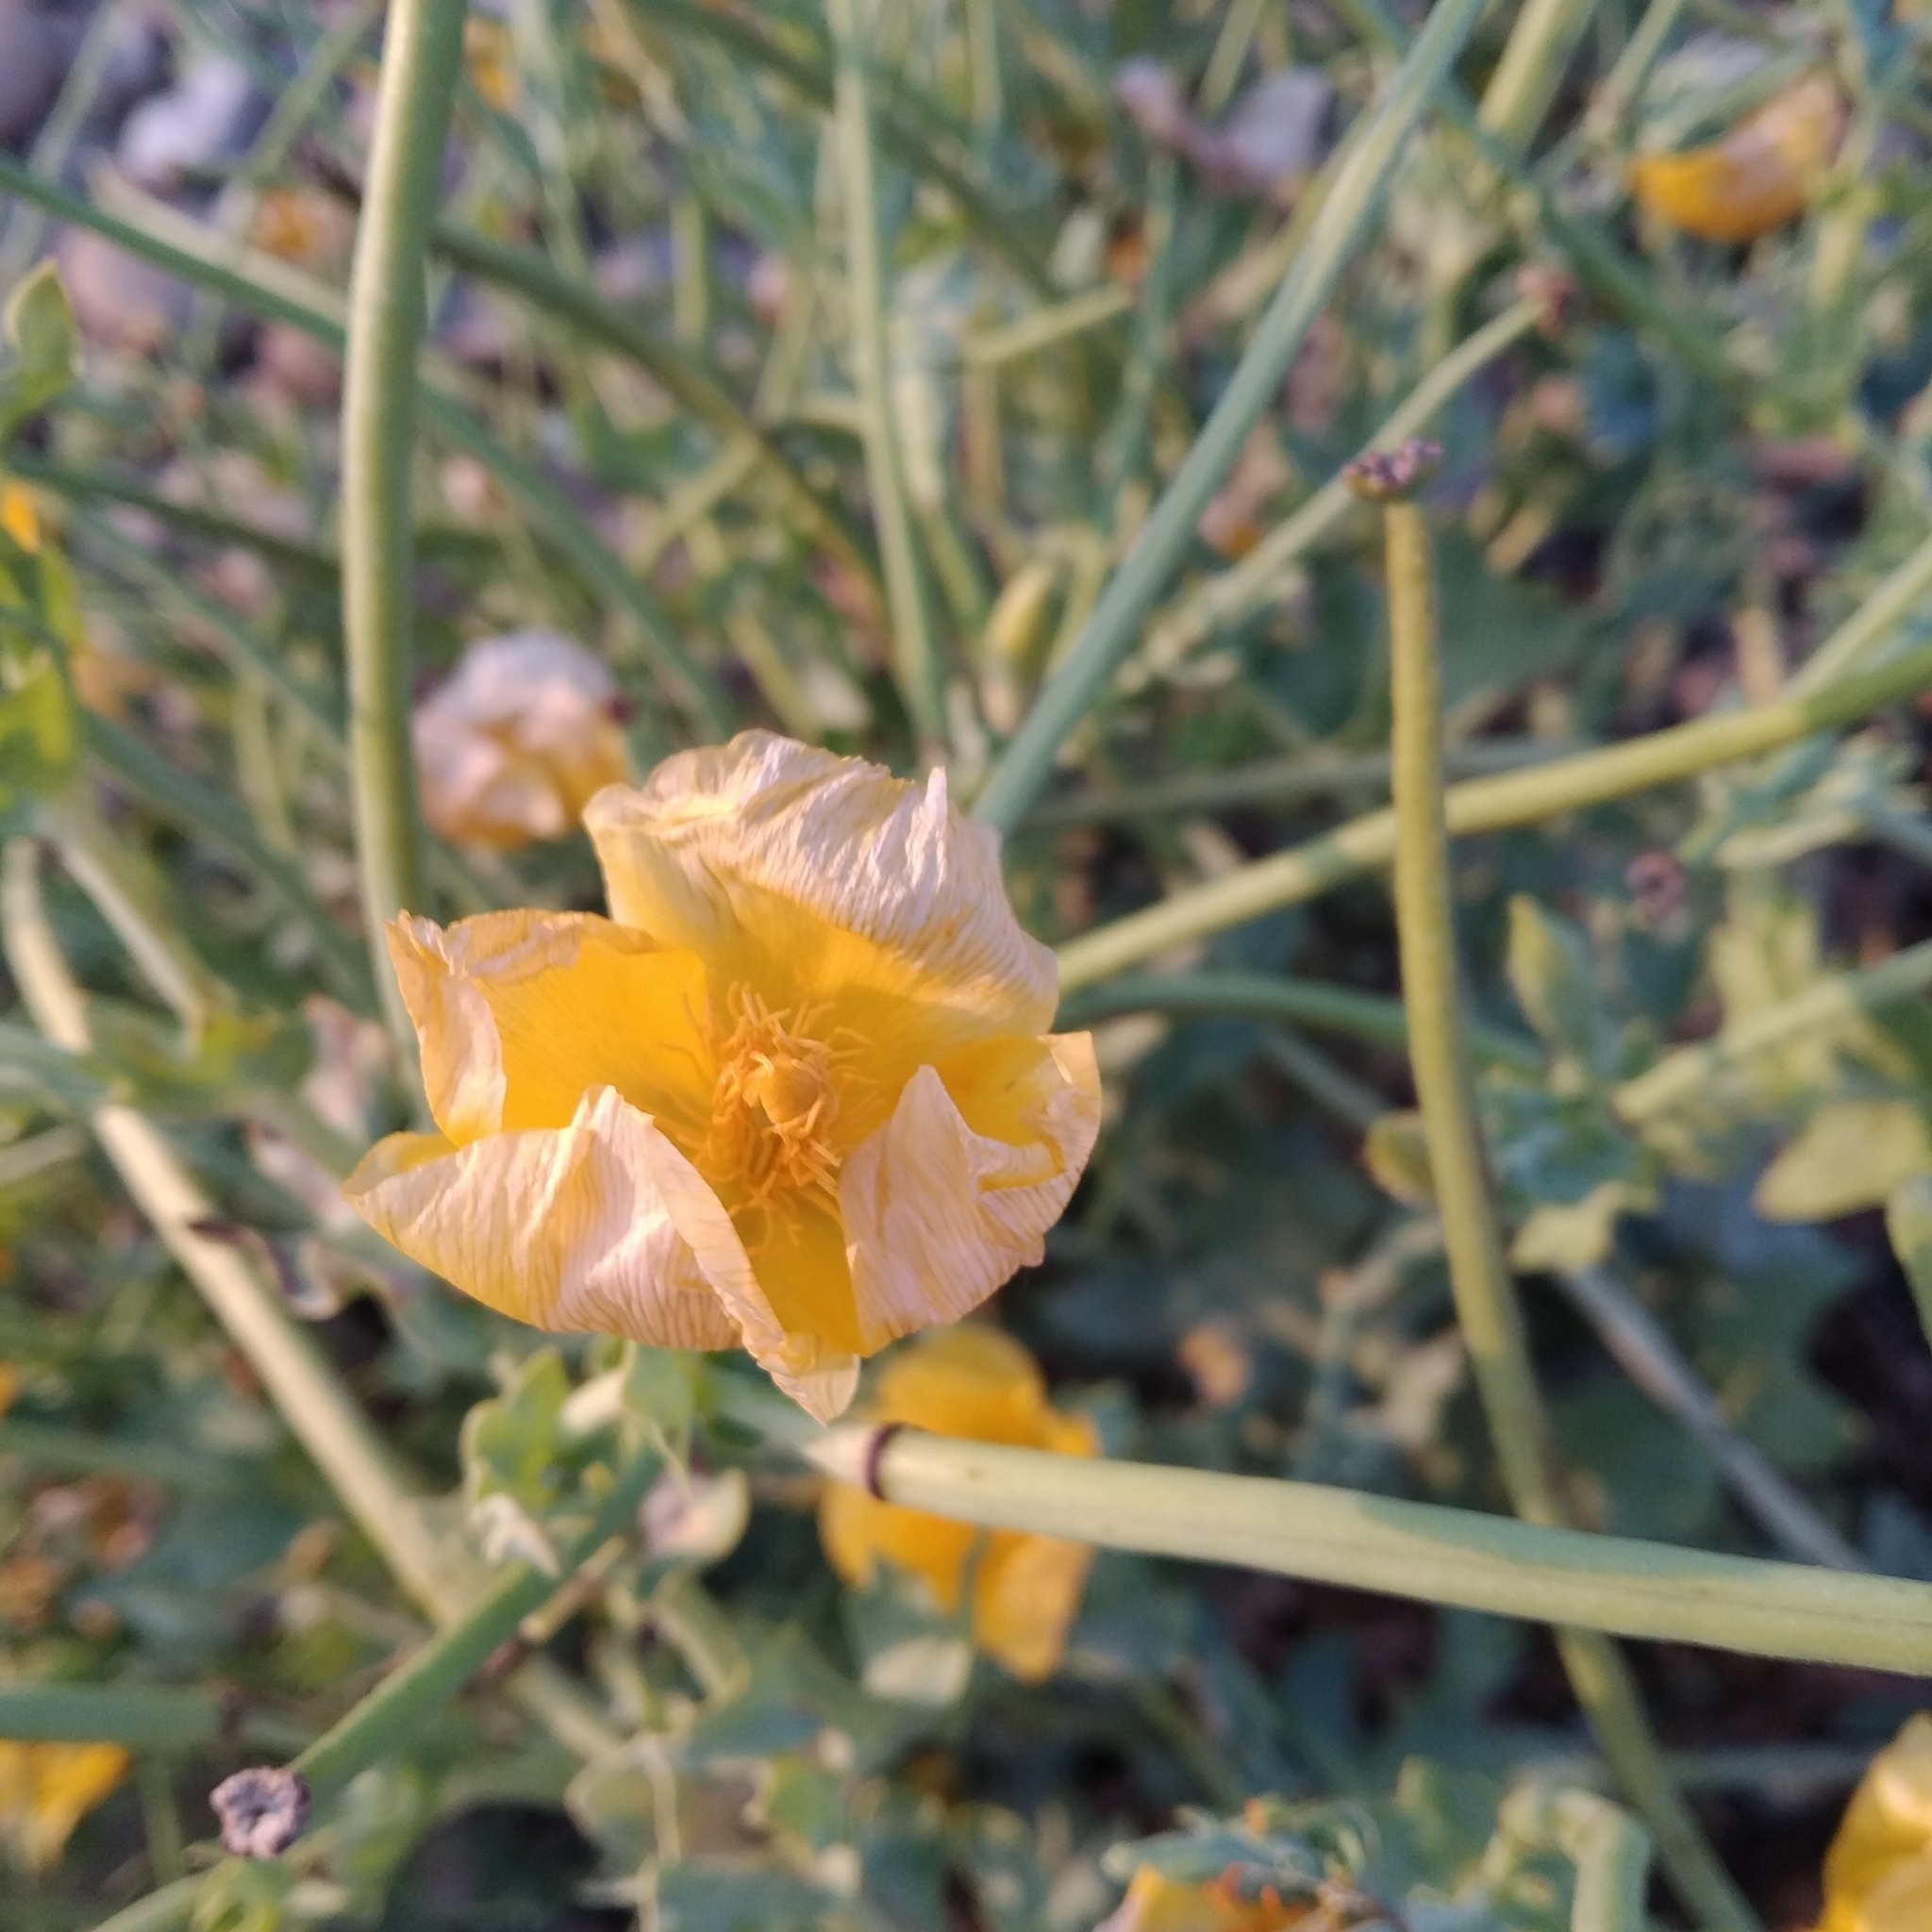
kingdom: Plantae
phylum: Tracheophyta
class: Magnoliopsida
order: Ranunculales
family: Papaveraceae
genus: Glaucium
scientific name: Glaucium flavum
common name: Yellow horned-poppy
